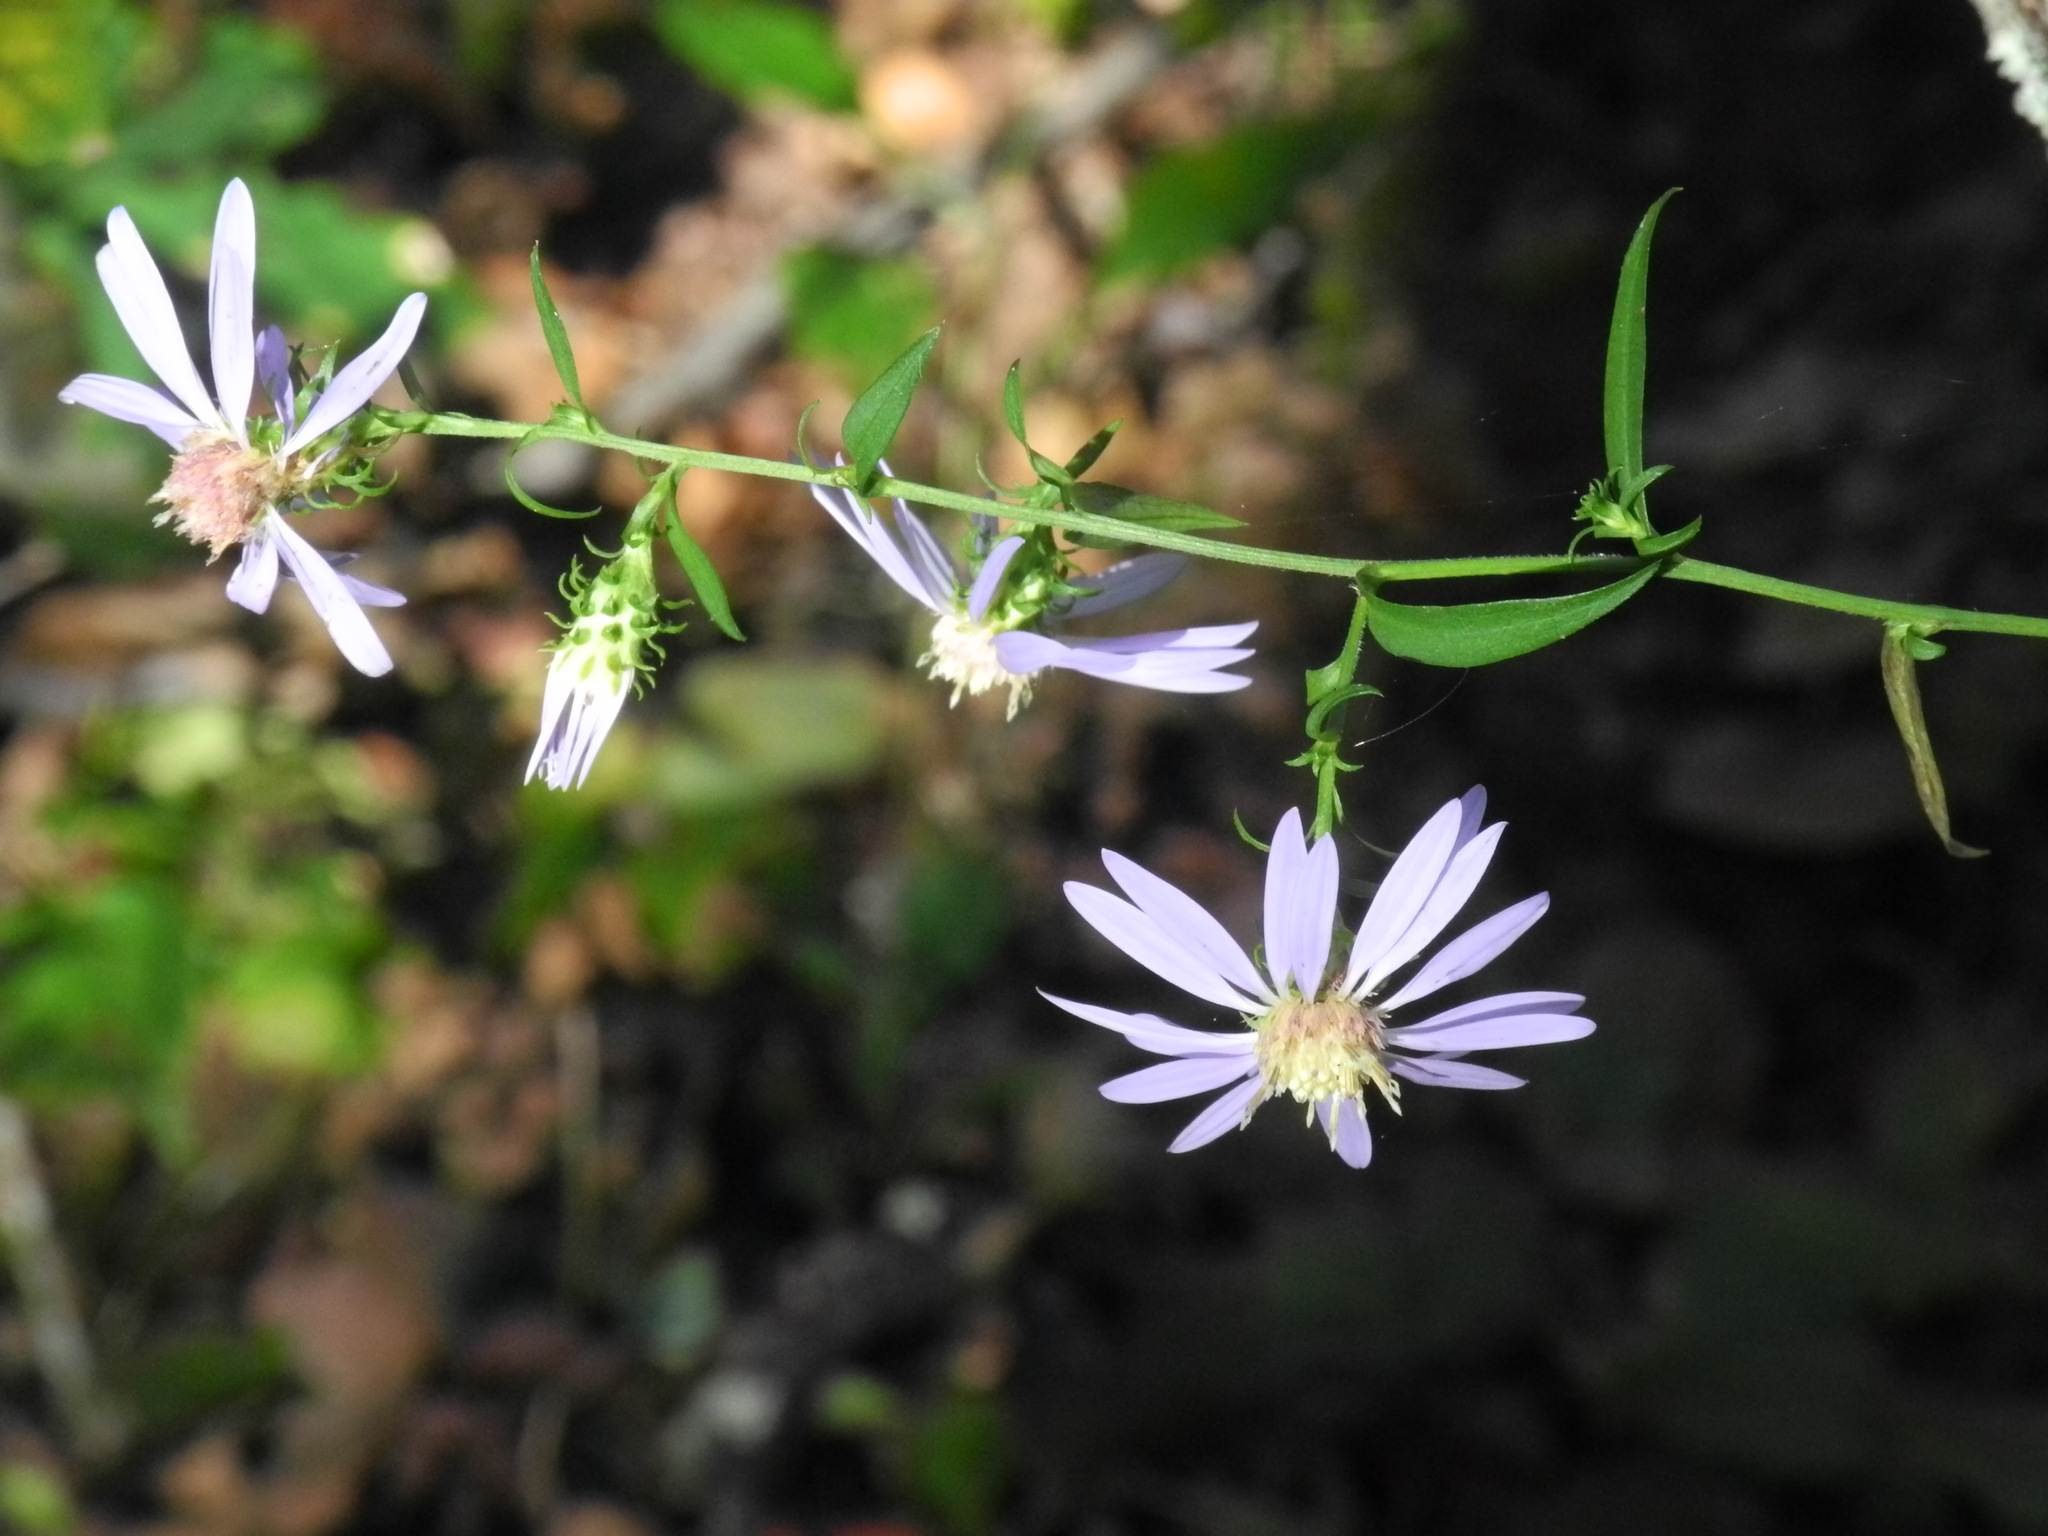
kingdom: Plantae
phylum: Tracheophyta
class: Magnoliopsida
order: Asterales
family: Asteraceae
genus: Symphyotrichum
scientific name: Symphyotrichum retroflexum
